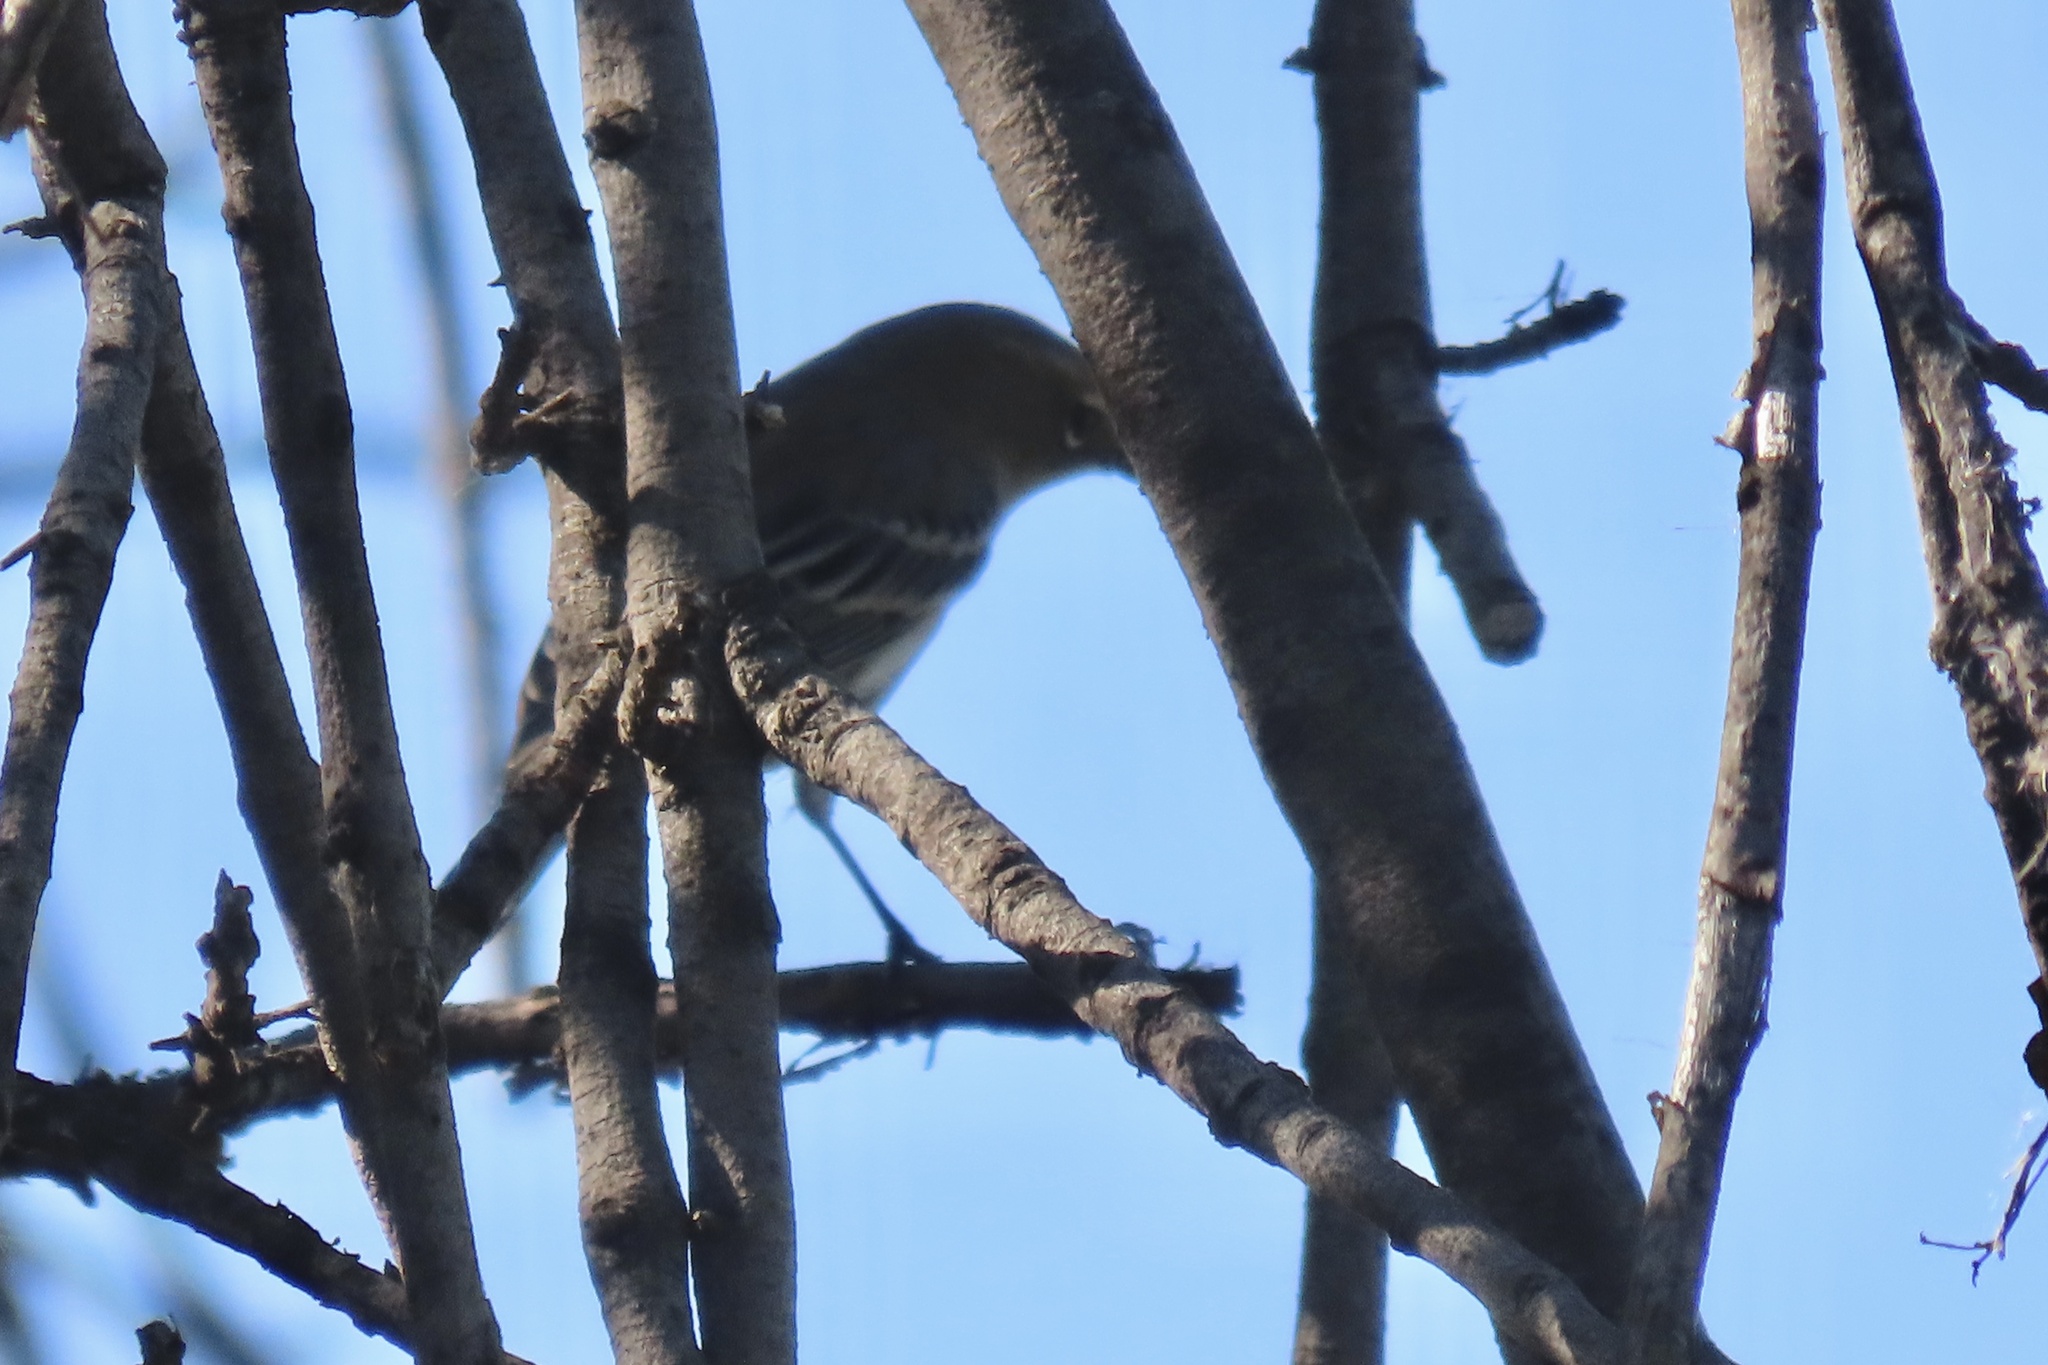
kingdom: Animalia
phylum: Chordata
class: Aves
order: Passeriformes
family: Parulidae
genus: Setophaga
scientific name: Setophaga coronata
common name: Myrtle warbler
